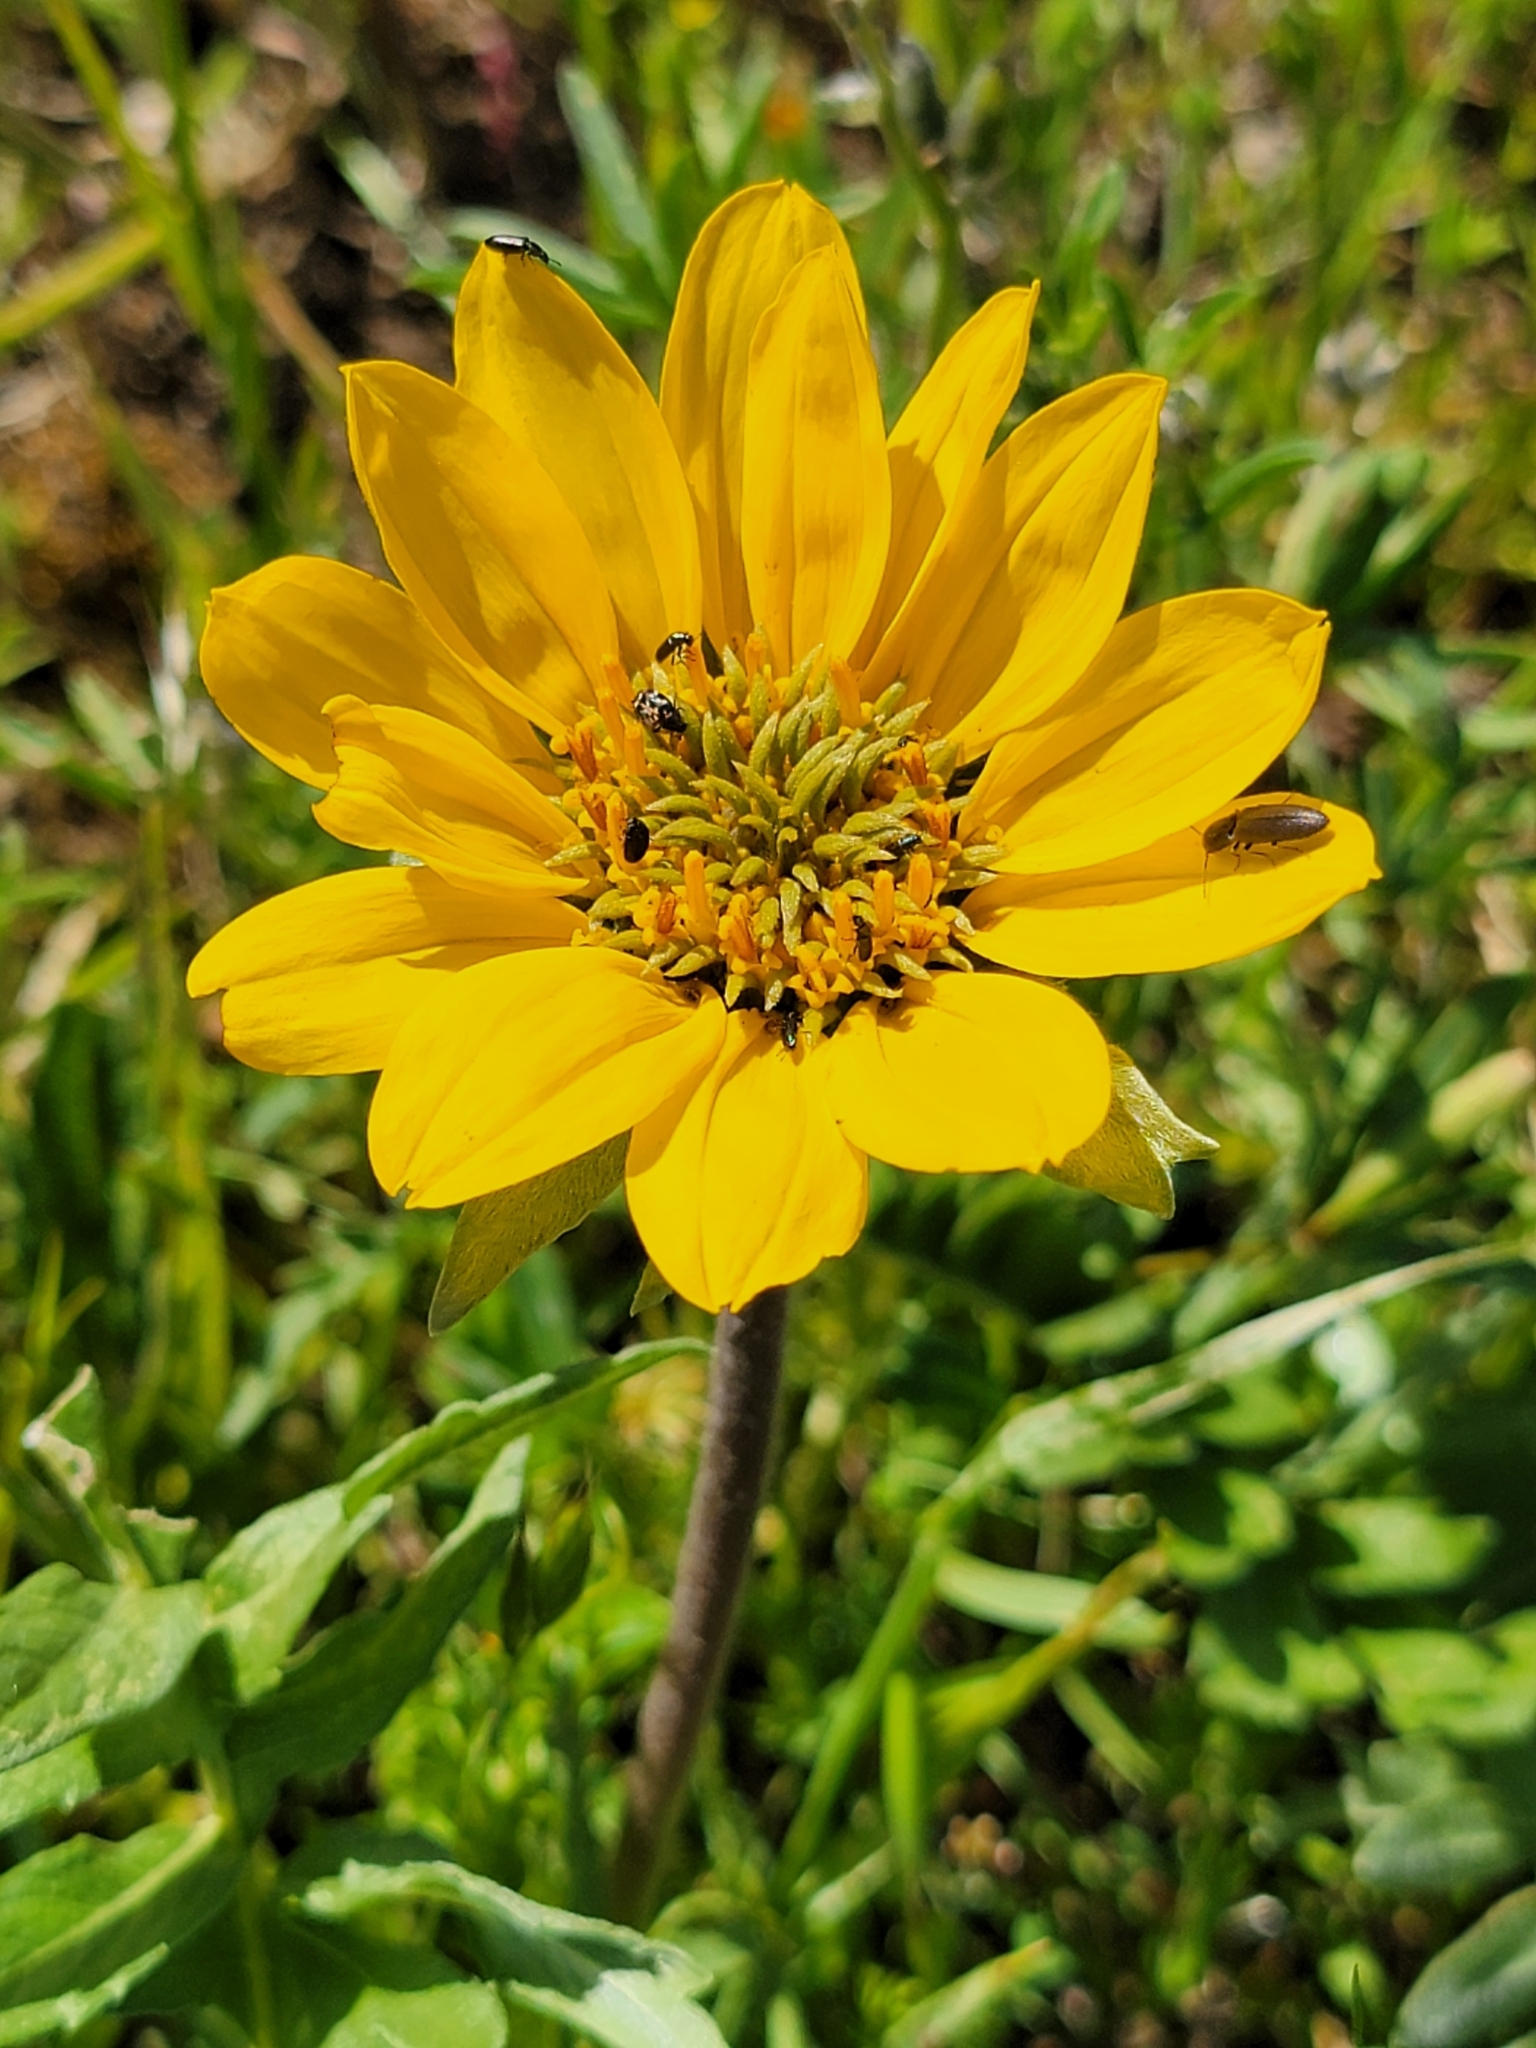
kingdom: Plantae
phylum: Tracheophyta
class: Magnoliopsida
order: Asterales
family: Asteraceae
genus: Balsamorhiza
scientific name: Balsamorhiza macrolepis
